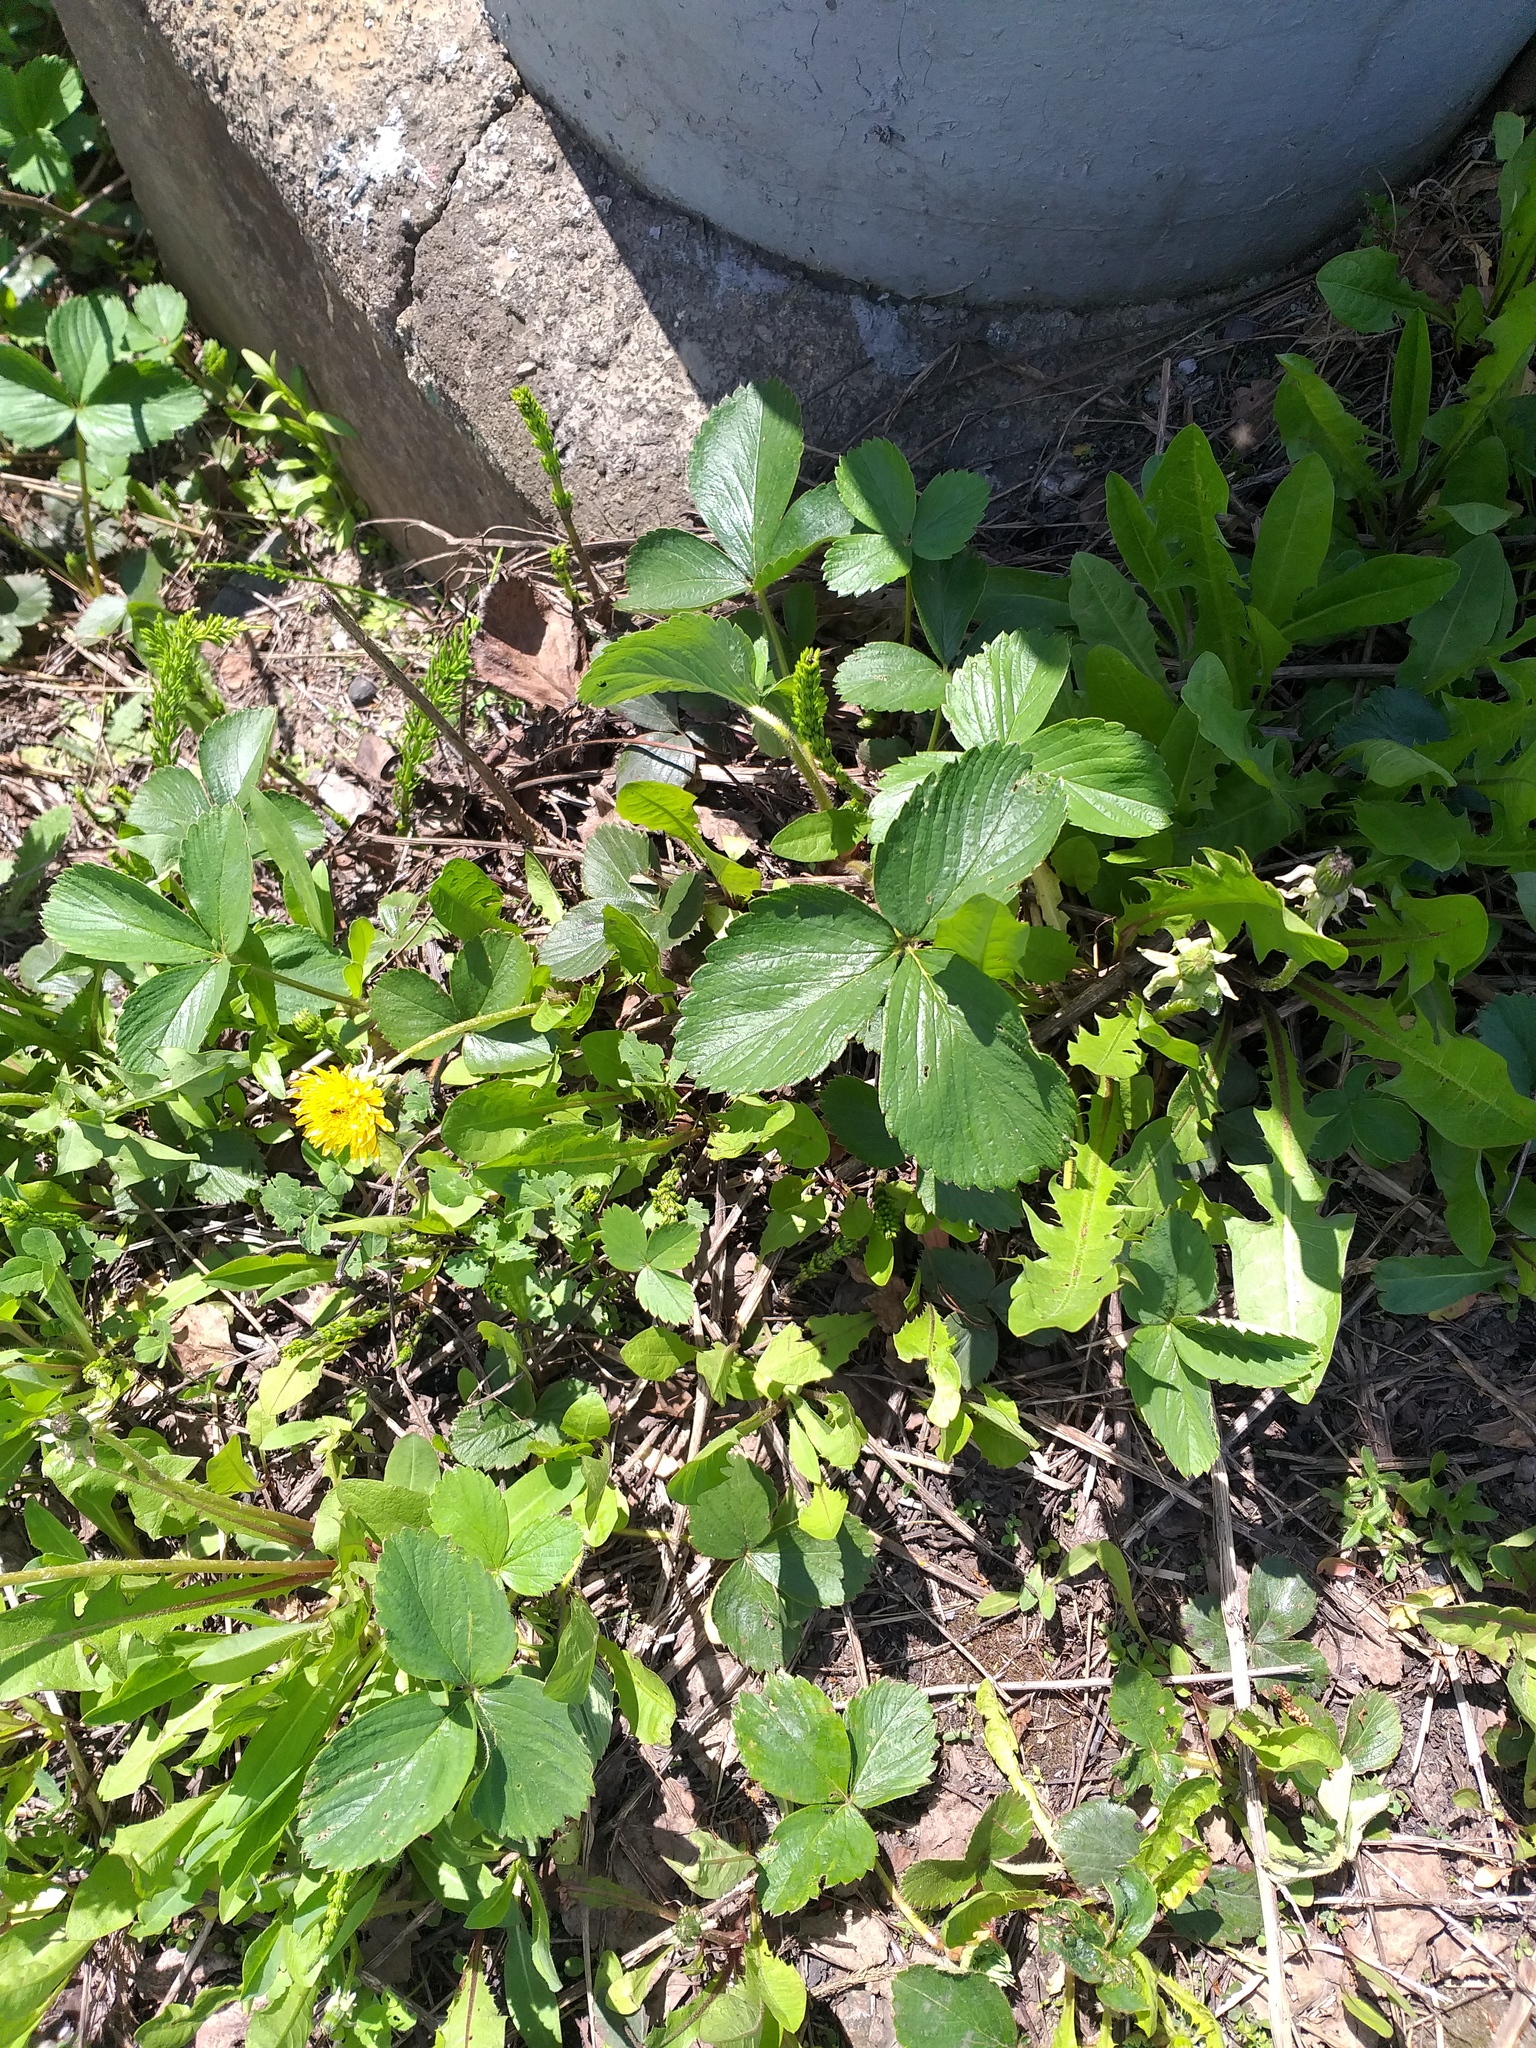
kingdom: Plantae
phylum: Tracheophyta
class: Magnoliopsida
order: Rosales
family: Rosaceae
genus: Fragaria
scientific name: Fragaria ananassa
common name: Garden strawberry
